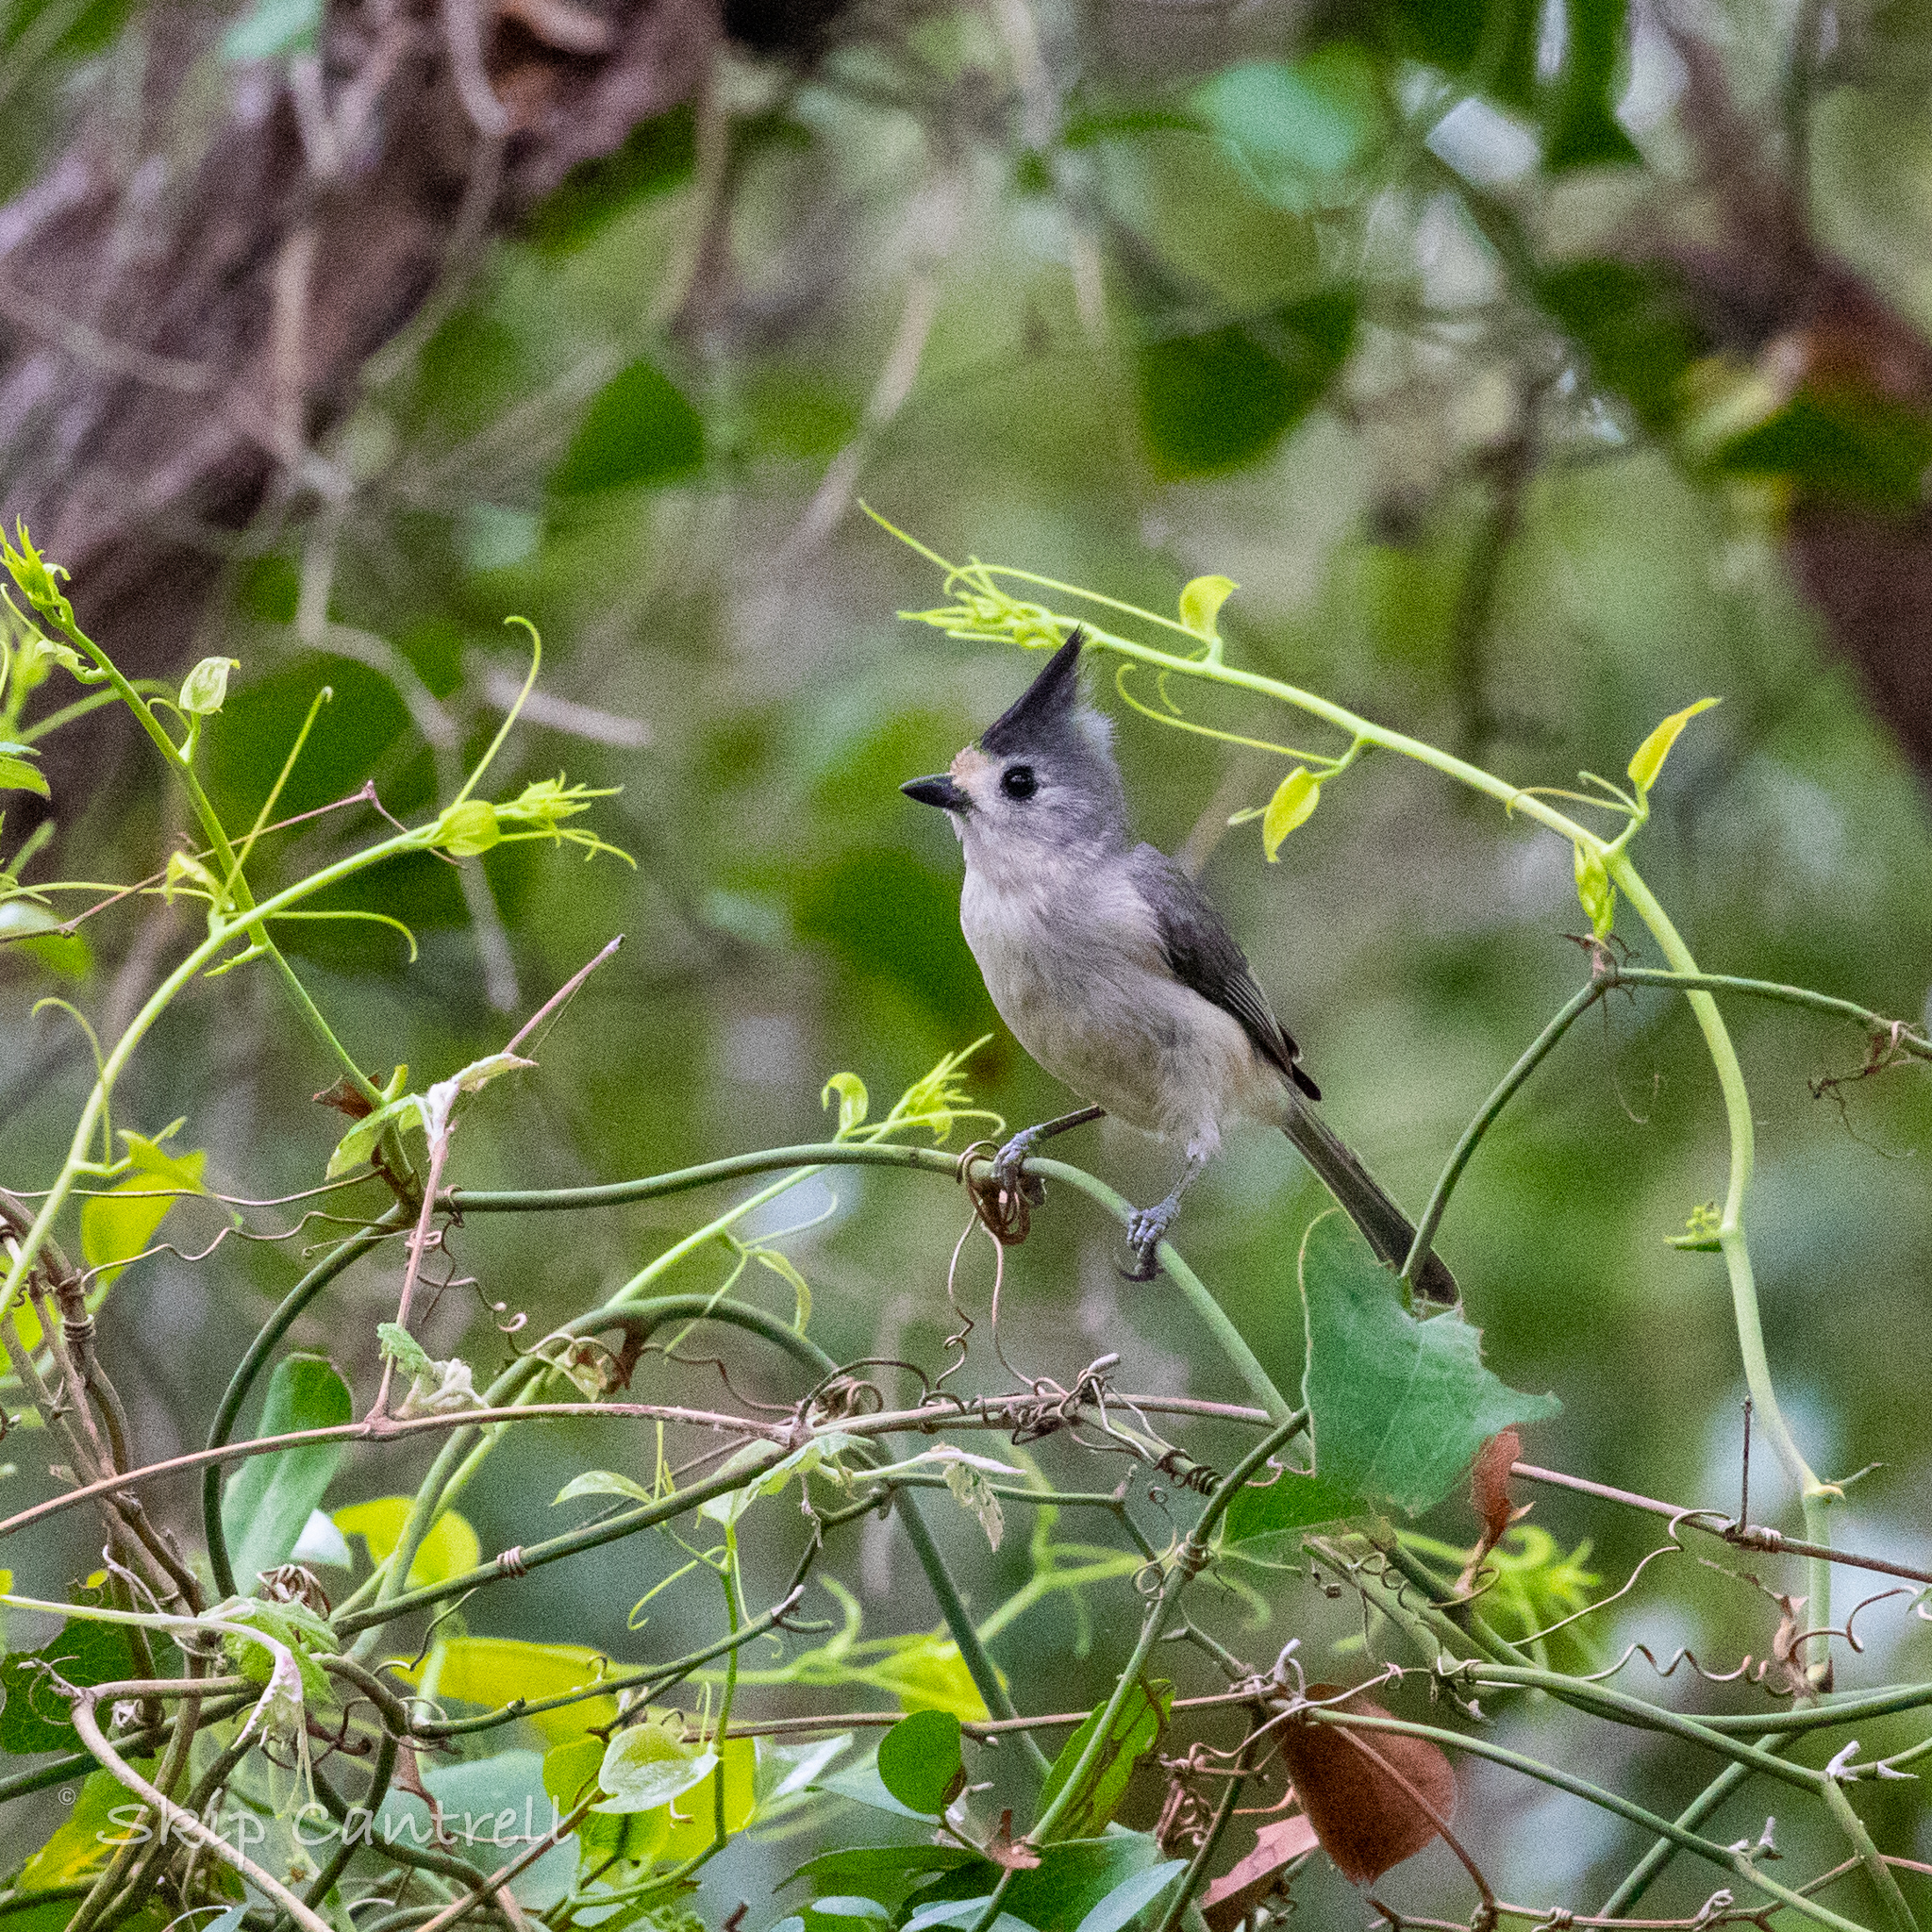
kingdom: Animalia
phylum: Chordata
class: Aves
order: Passeriformes
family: Paridae
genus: Baeolophus
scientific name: Baeolophus atricristatus
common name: Black-crested titmouse
